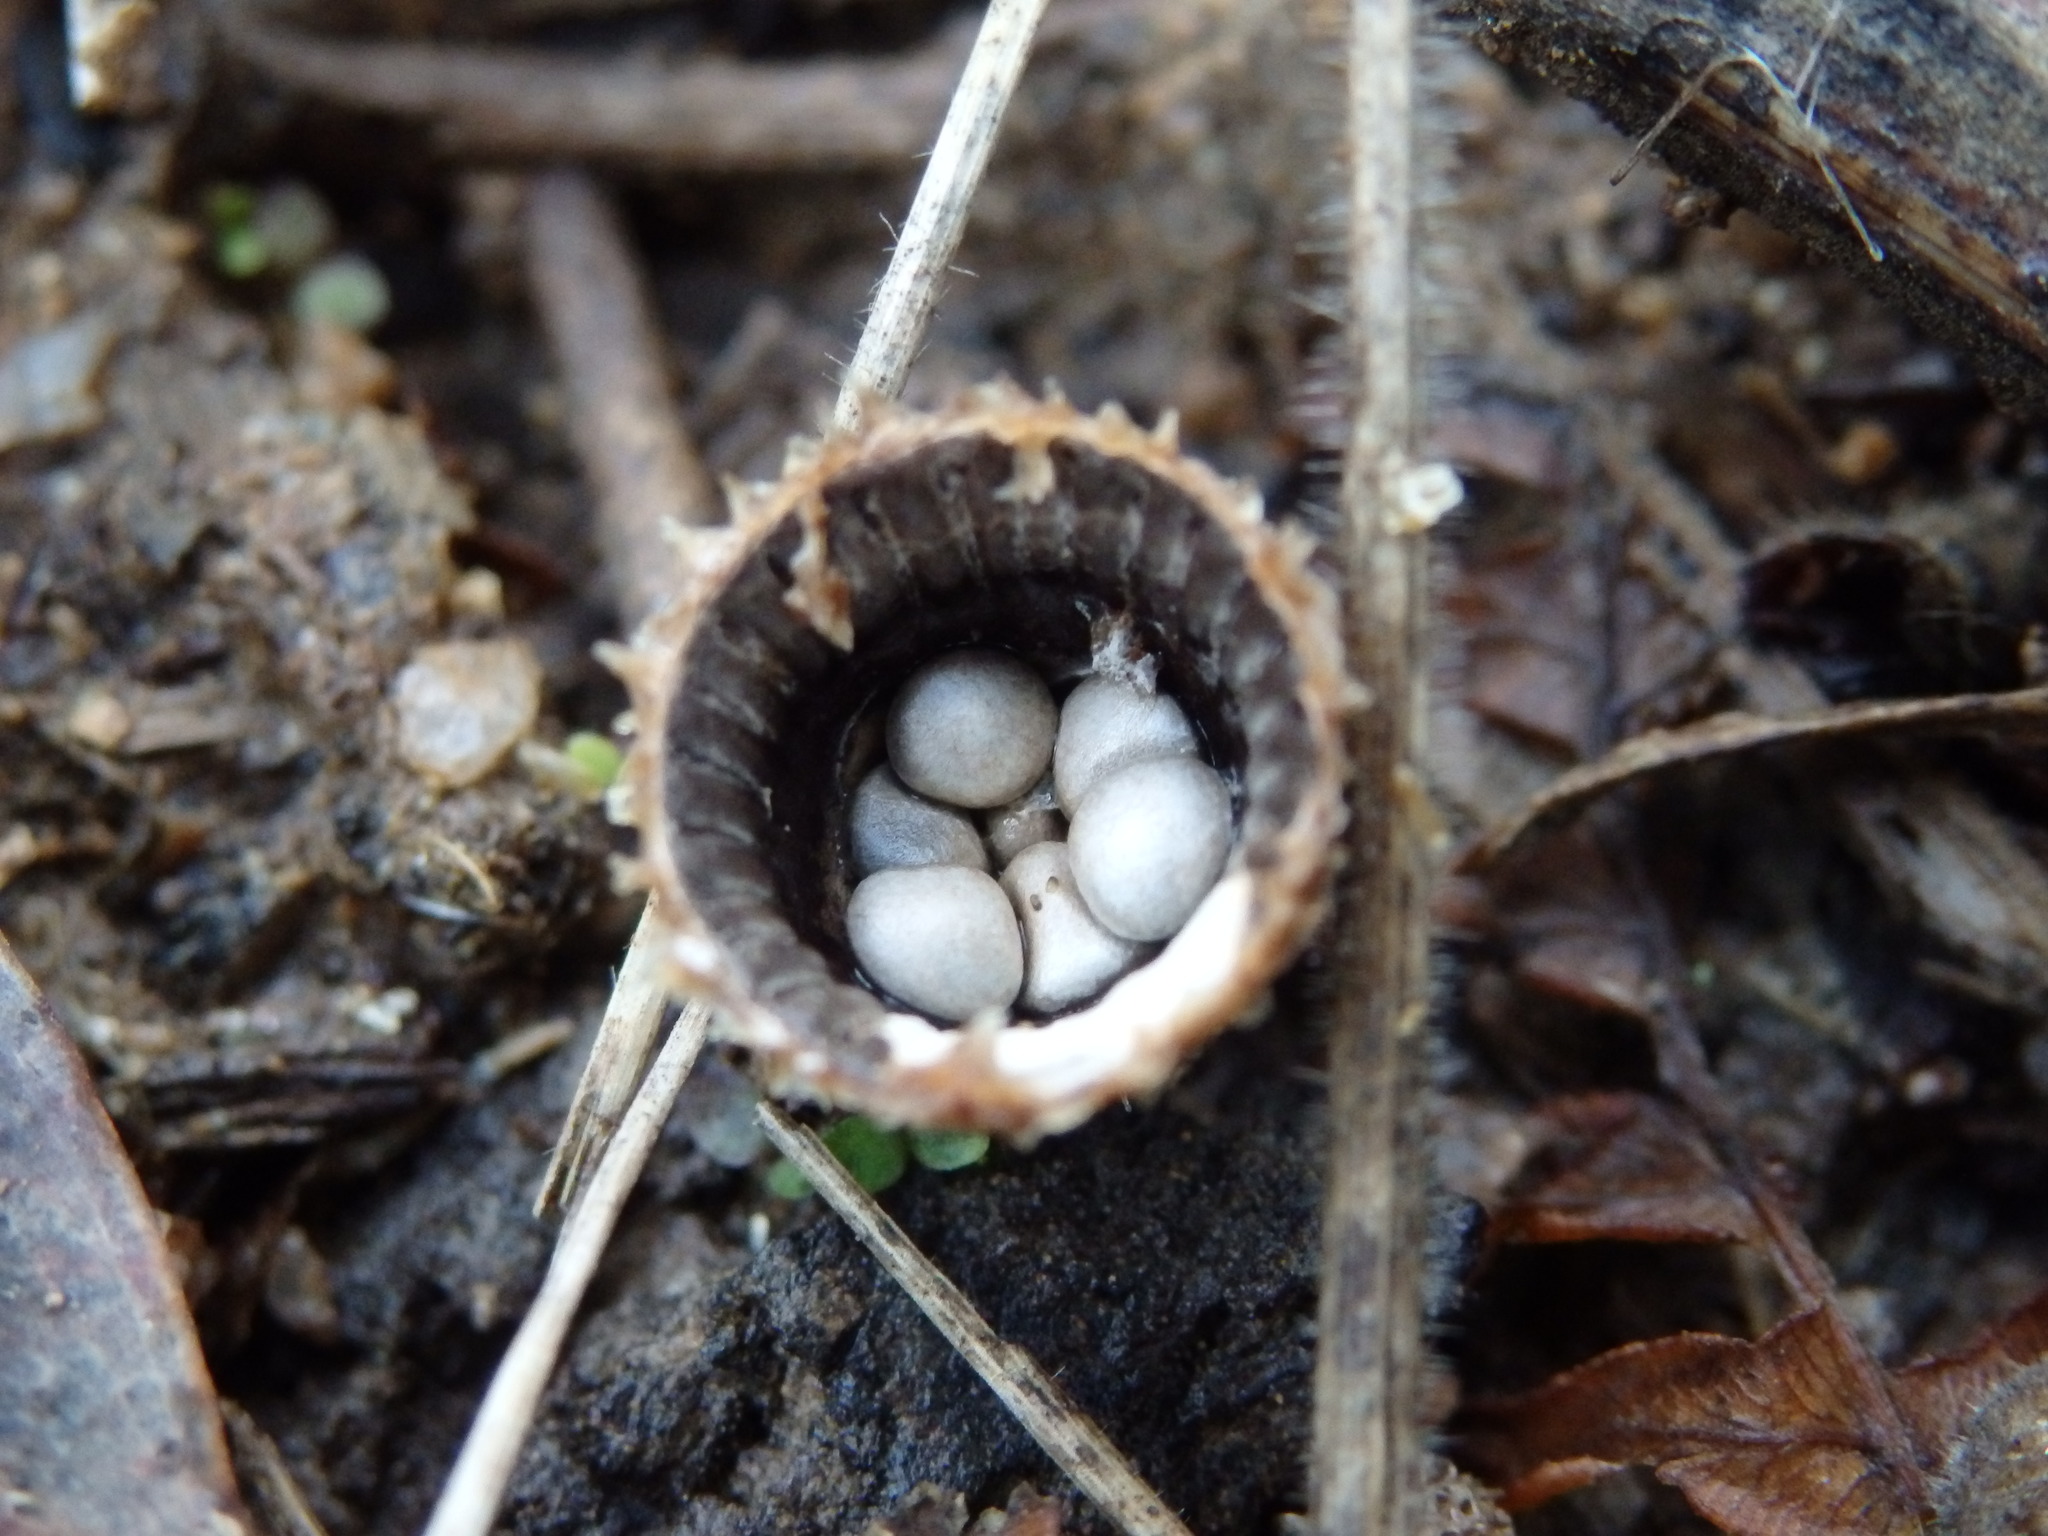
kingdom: Fungi
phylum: Basidiomycota
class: Agaricomycetes
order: Agaricales
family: Agaricaceae
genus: Cyathus
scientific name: Cyathus striatus
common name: Fluted bird's nest
